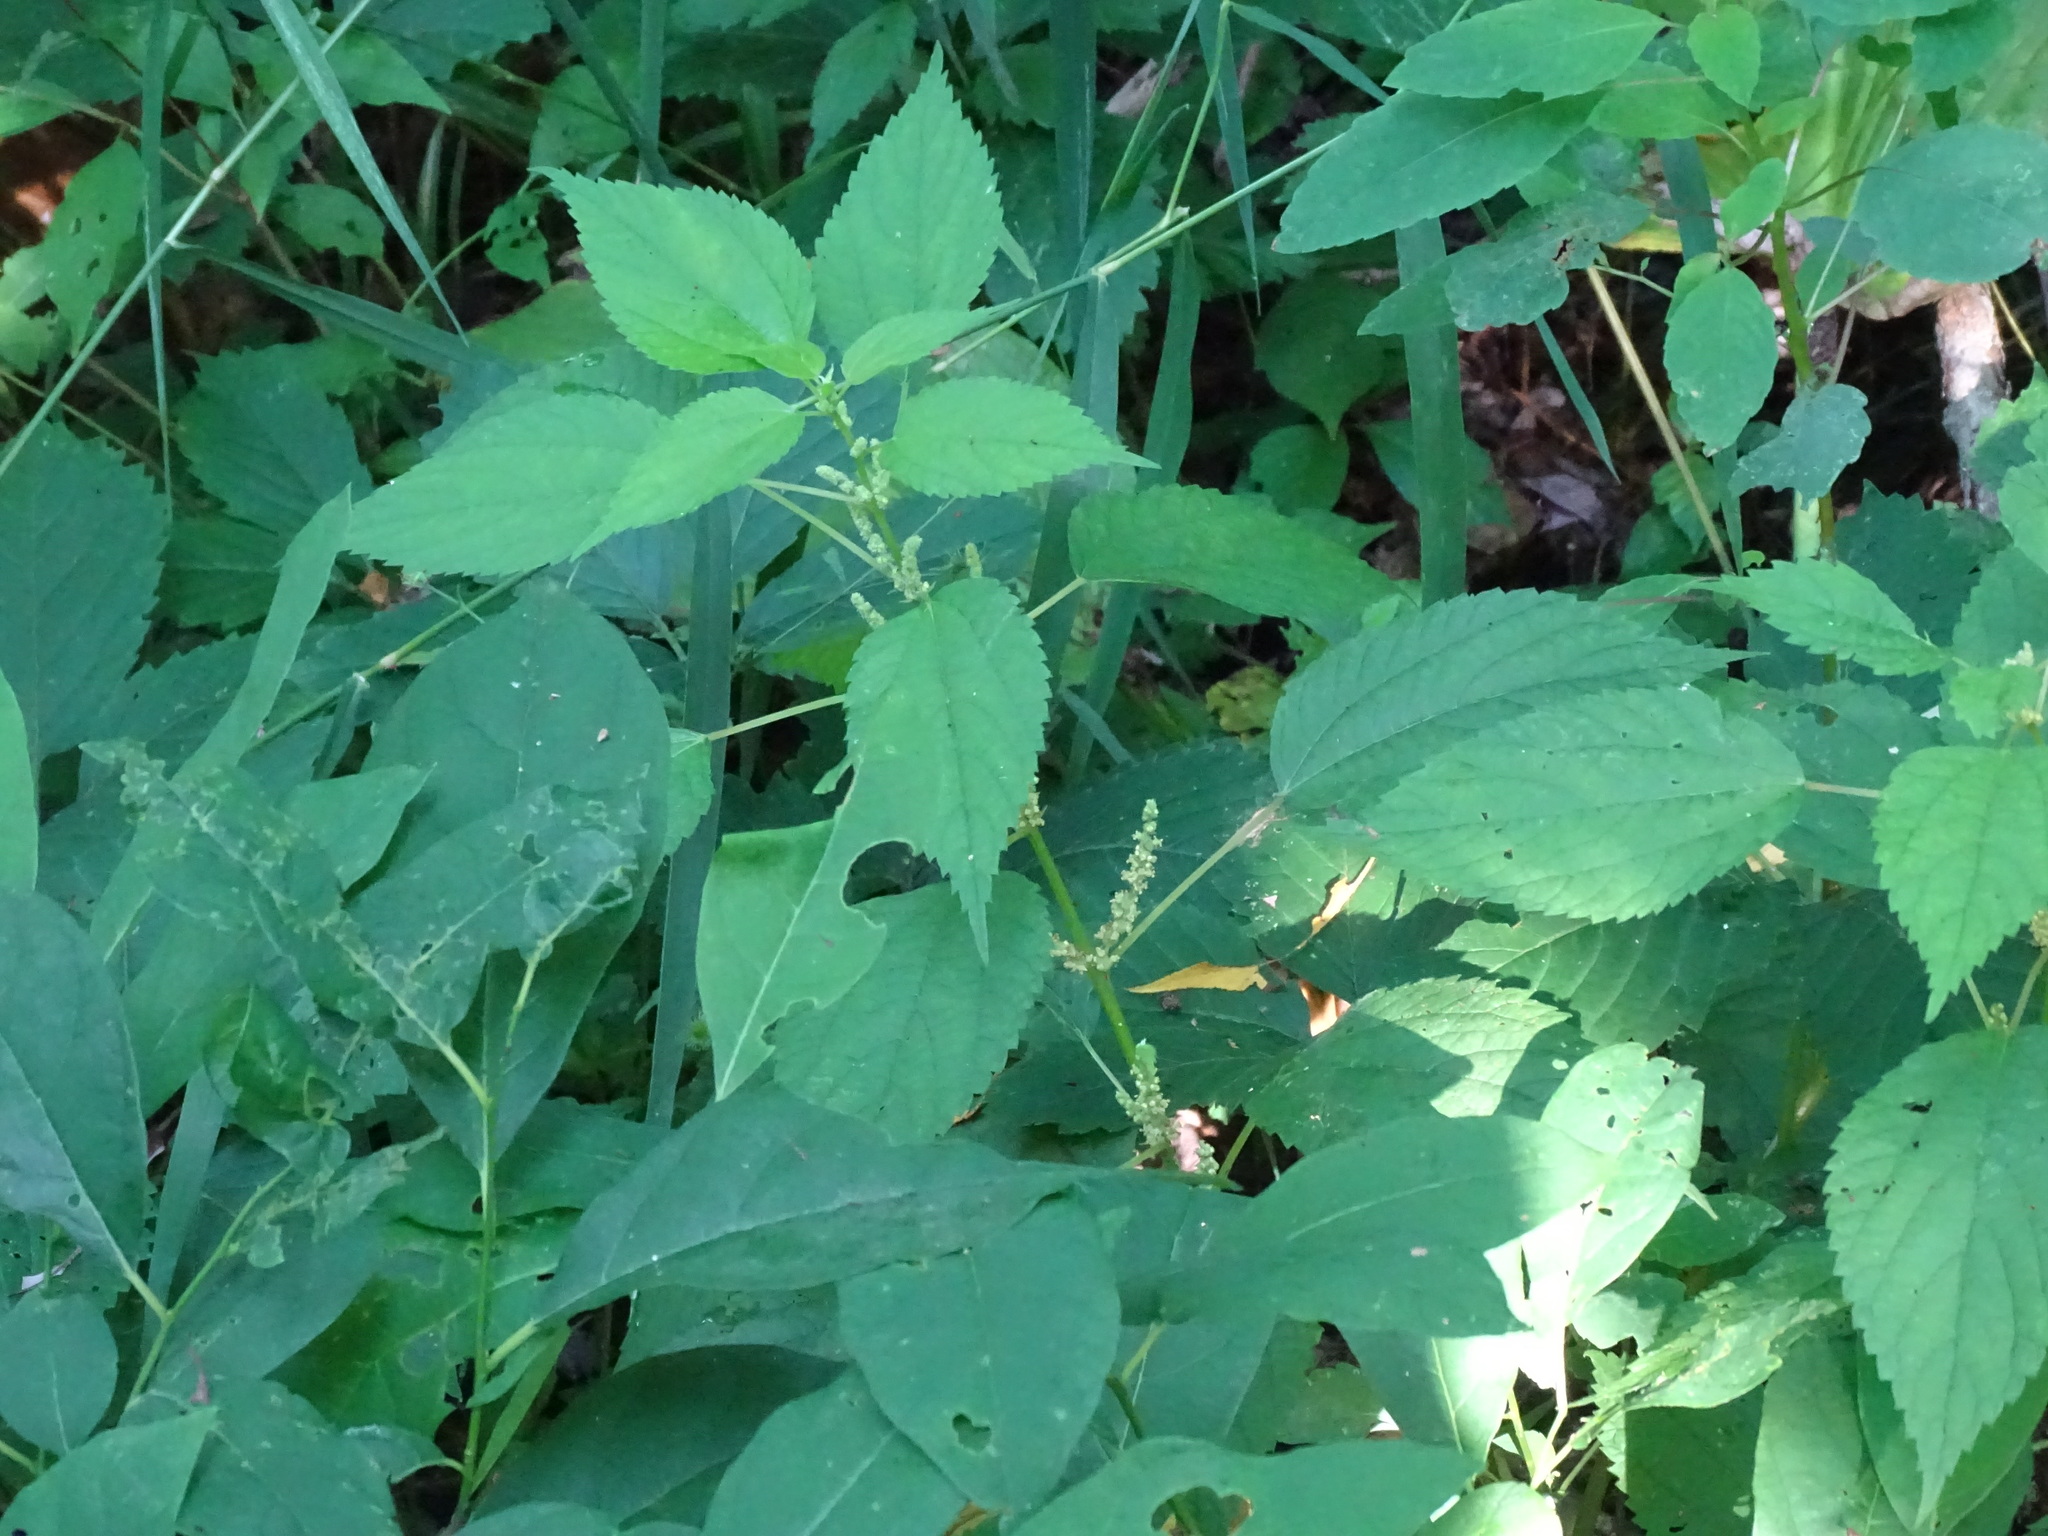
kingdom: Plantae
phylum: Tracheophyta
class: Magnoliopsida
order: Rosales
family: Urticaceae
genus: Boehmeria
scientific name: Boehmeria cylindrica
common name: Bog-hemp
